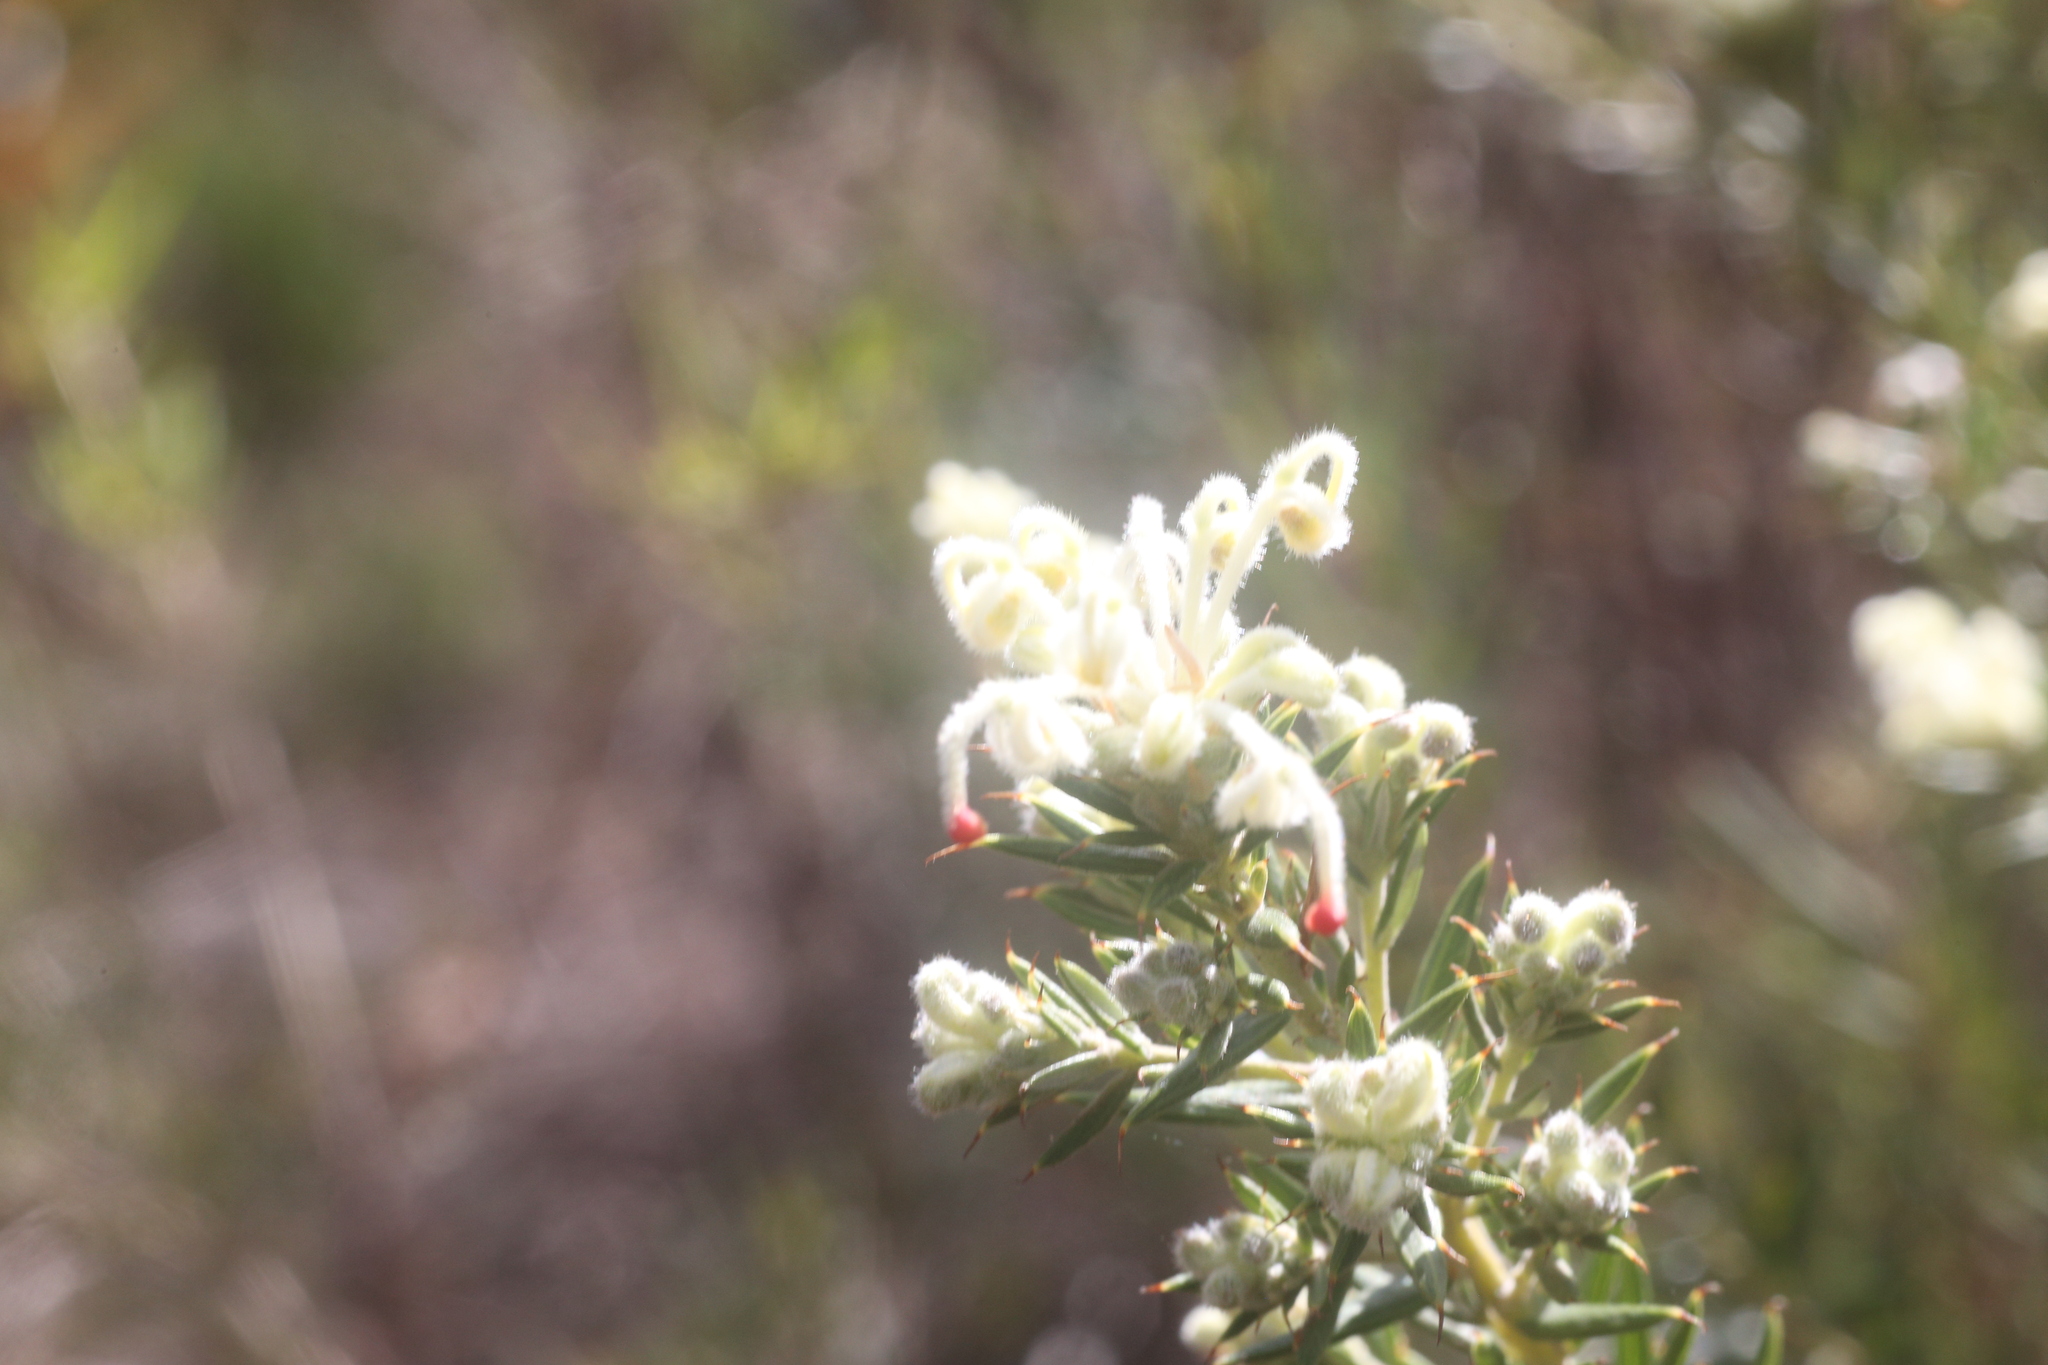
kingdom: Plantae
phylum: Tracheophyta
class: Magnoliopsida
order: Proteales
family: Proteaceae
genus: Grevillea
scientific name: Grevillea pilulifera
